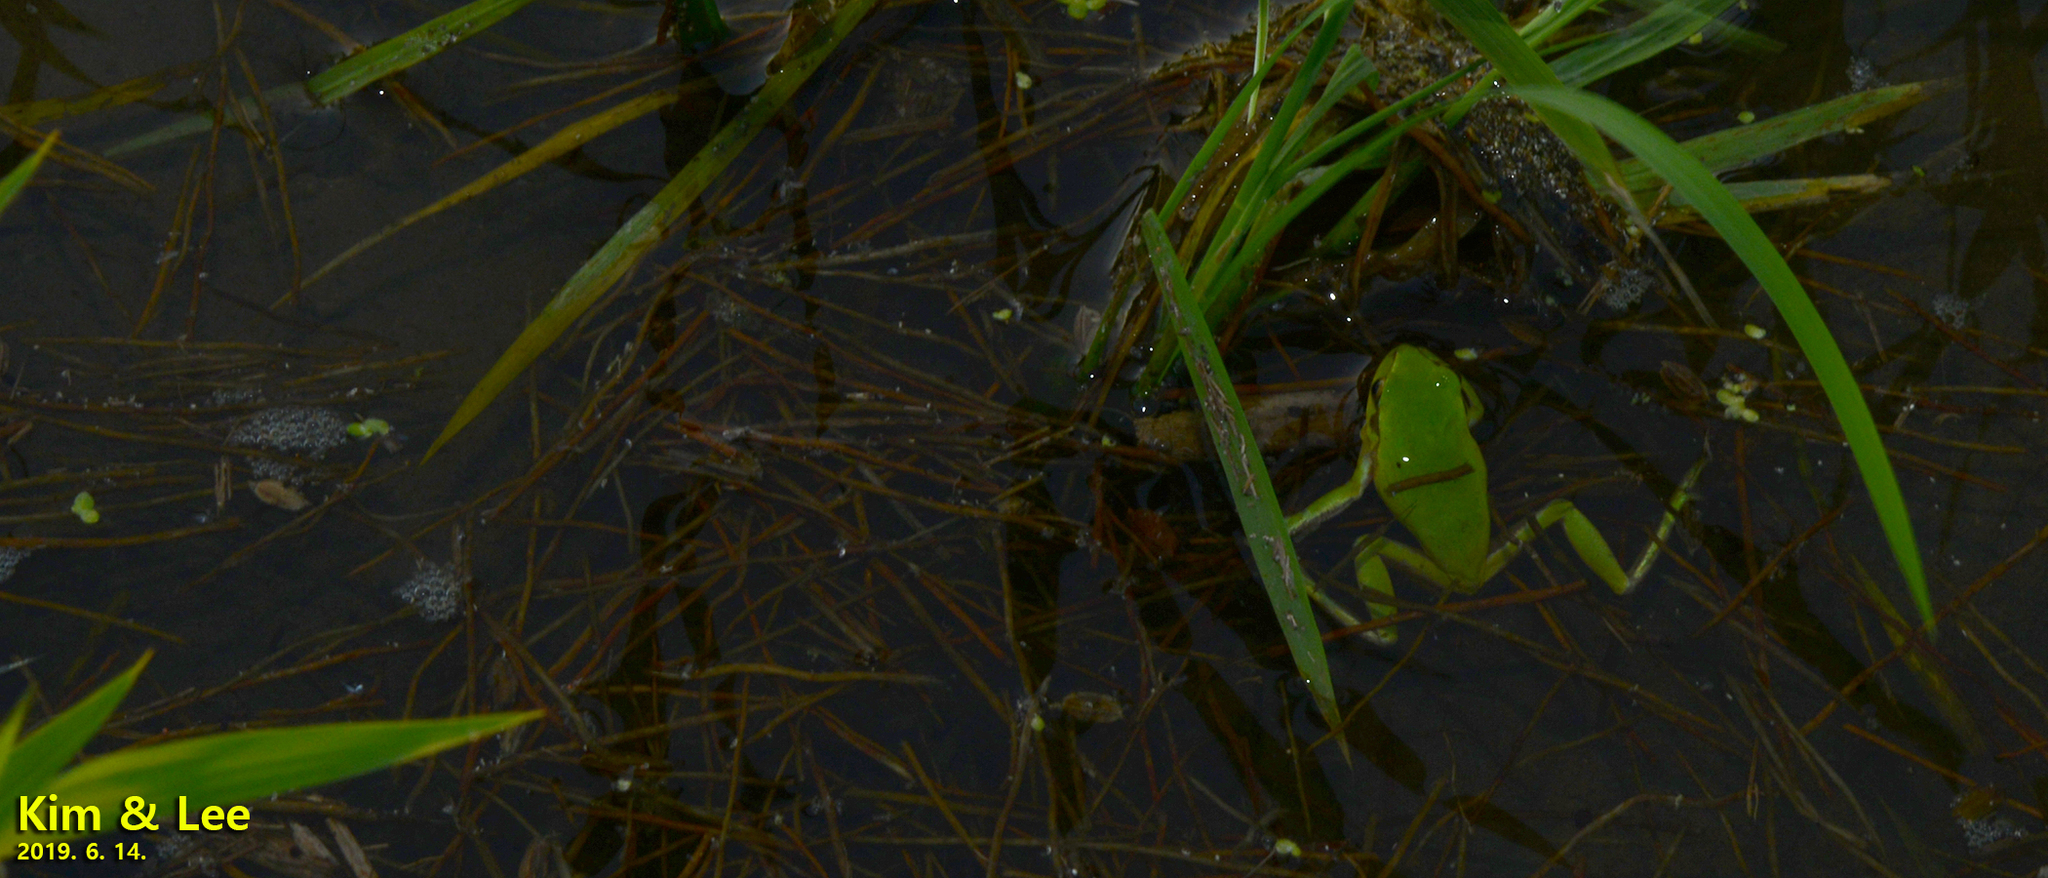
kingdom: Animalia
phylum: Chordata
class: Amphibia
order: Anura
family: Hylidae
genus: Dryophytes
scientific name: Dryophytes immaculatus
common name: North china treefrog
